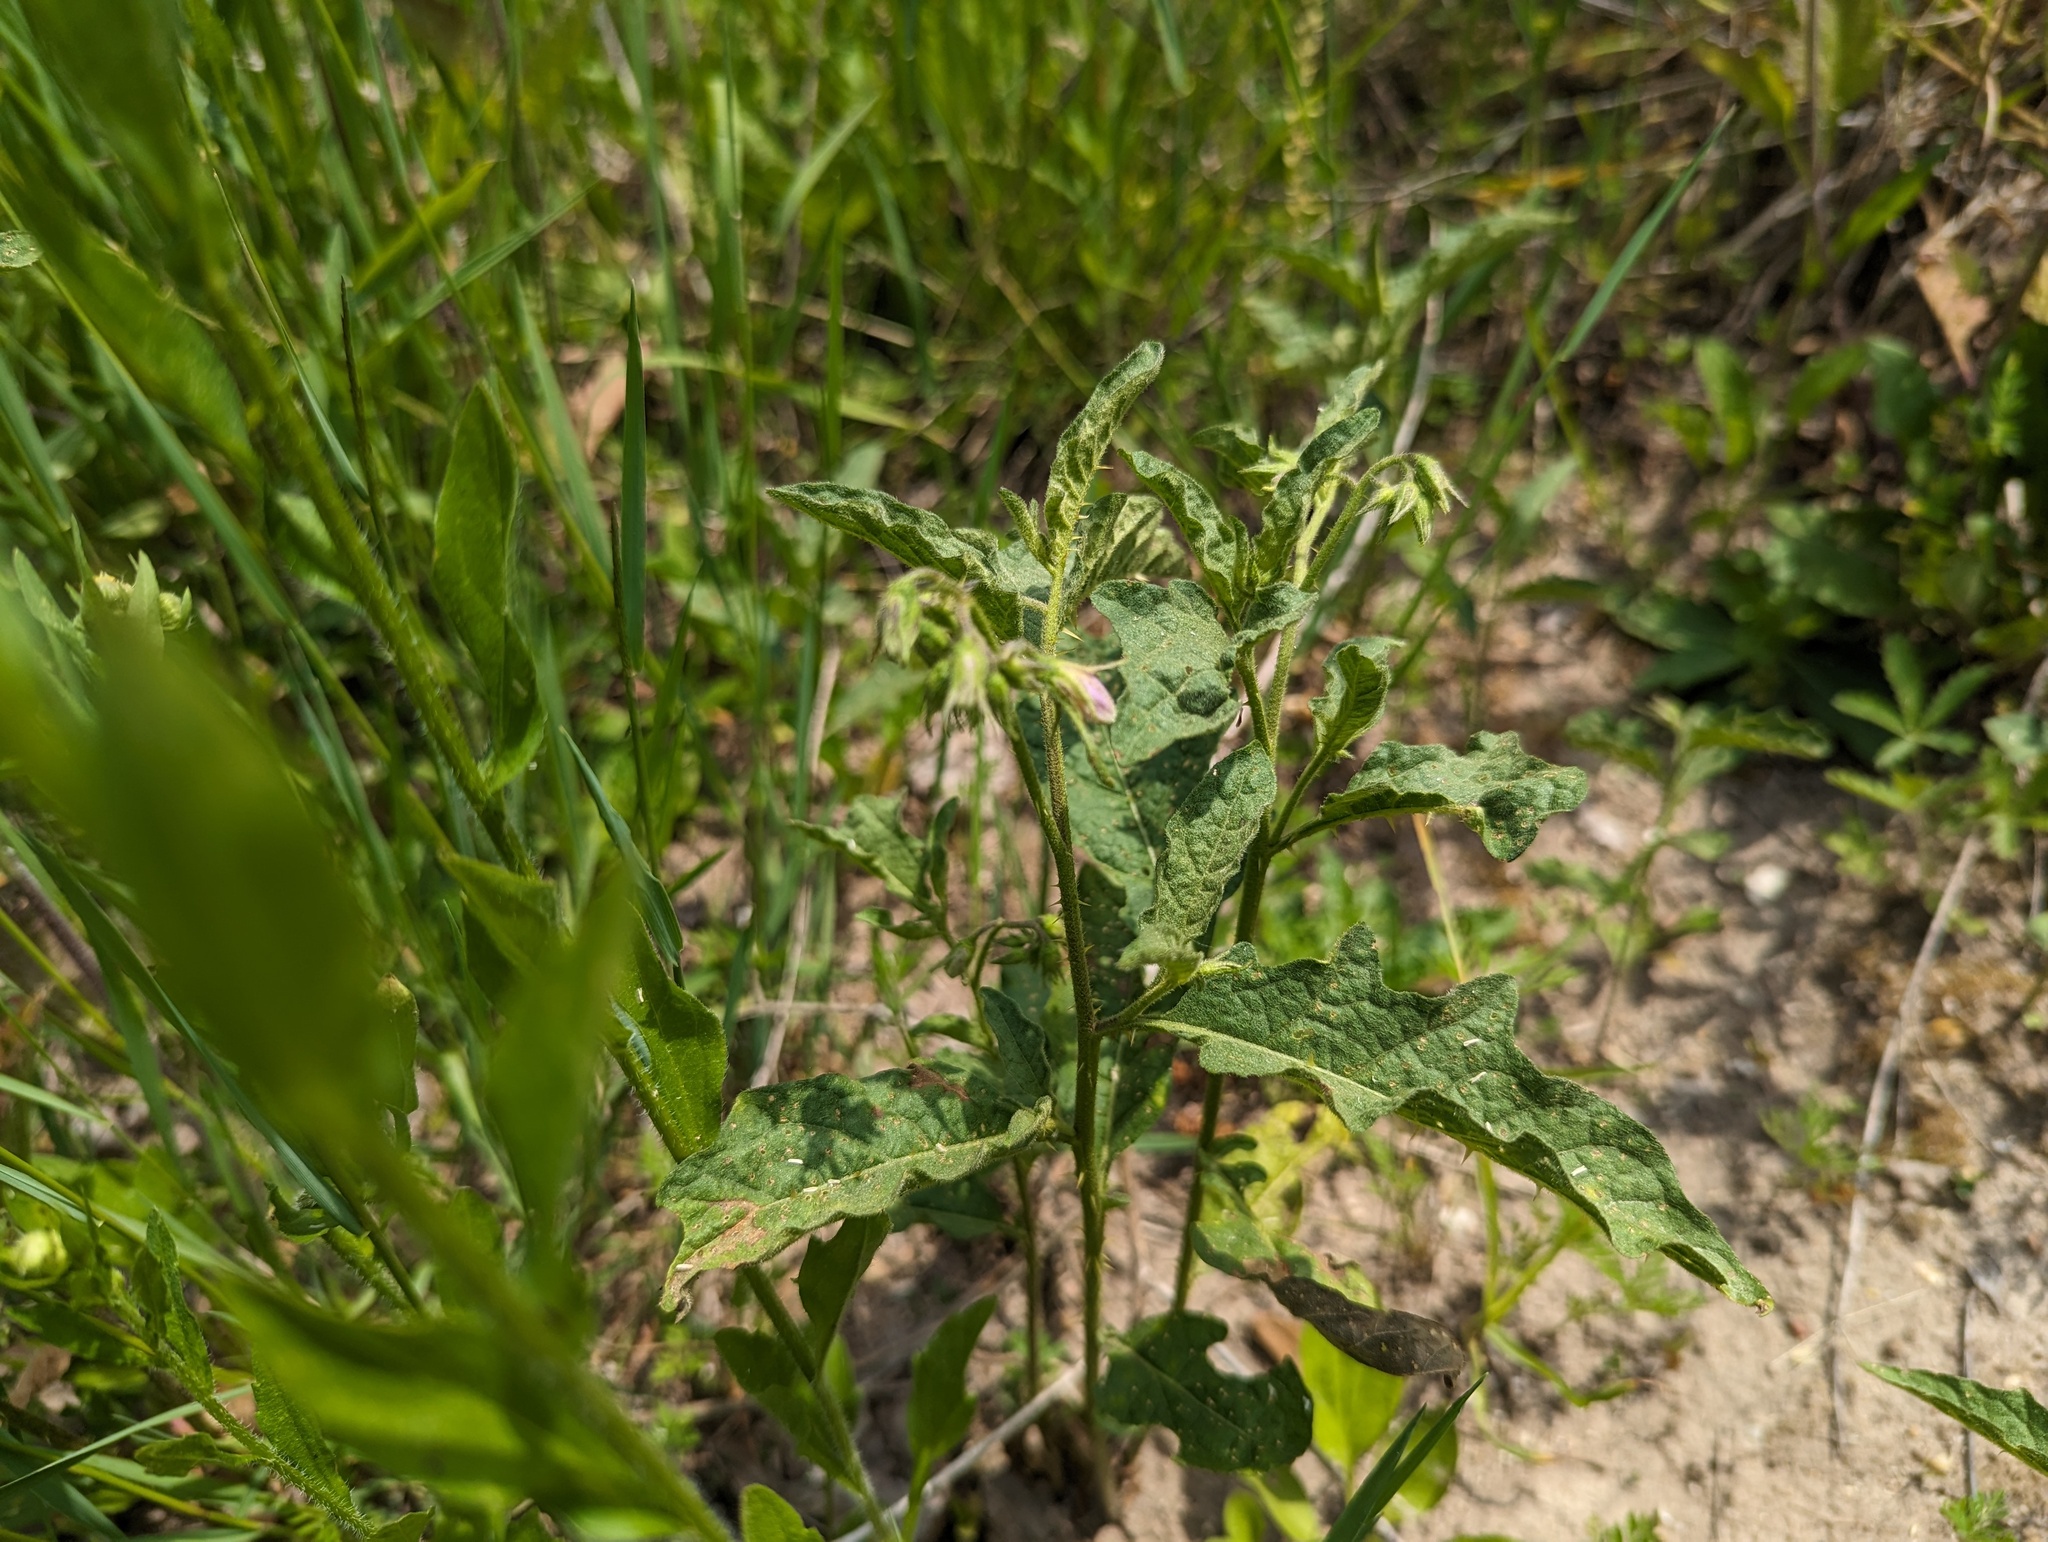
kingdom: Plantae
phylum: Tracheophyta
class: Magnoliopsida
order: Solanales
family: Solanaceae
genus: Solanum
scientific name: Solanum carolinense
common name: Horse-nettle
